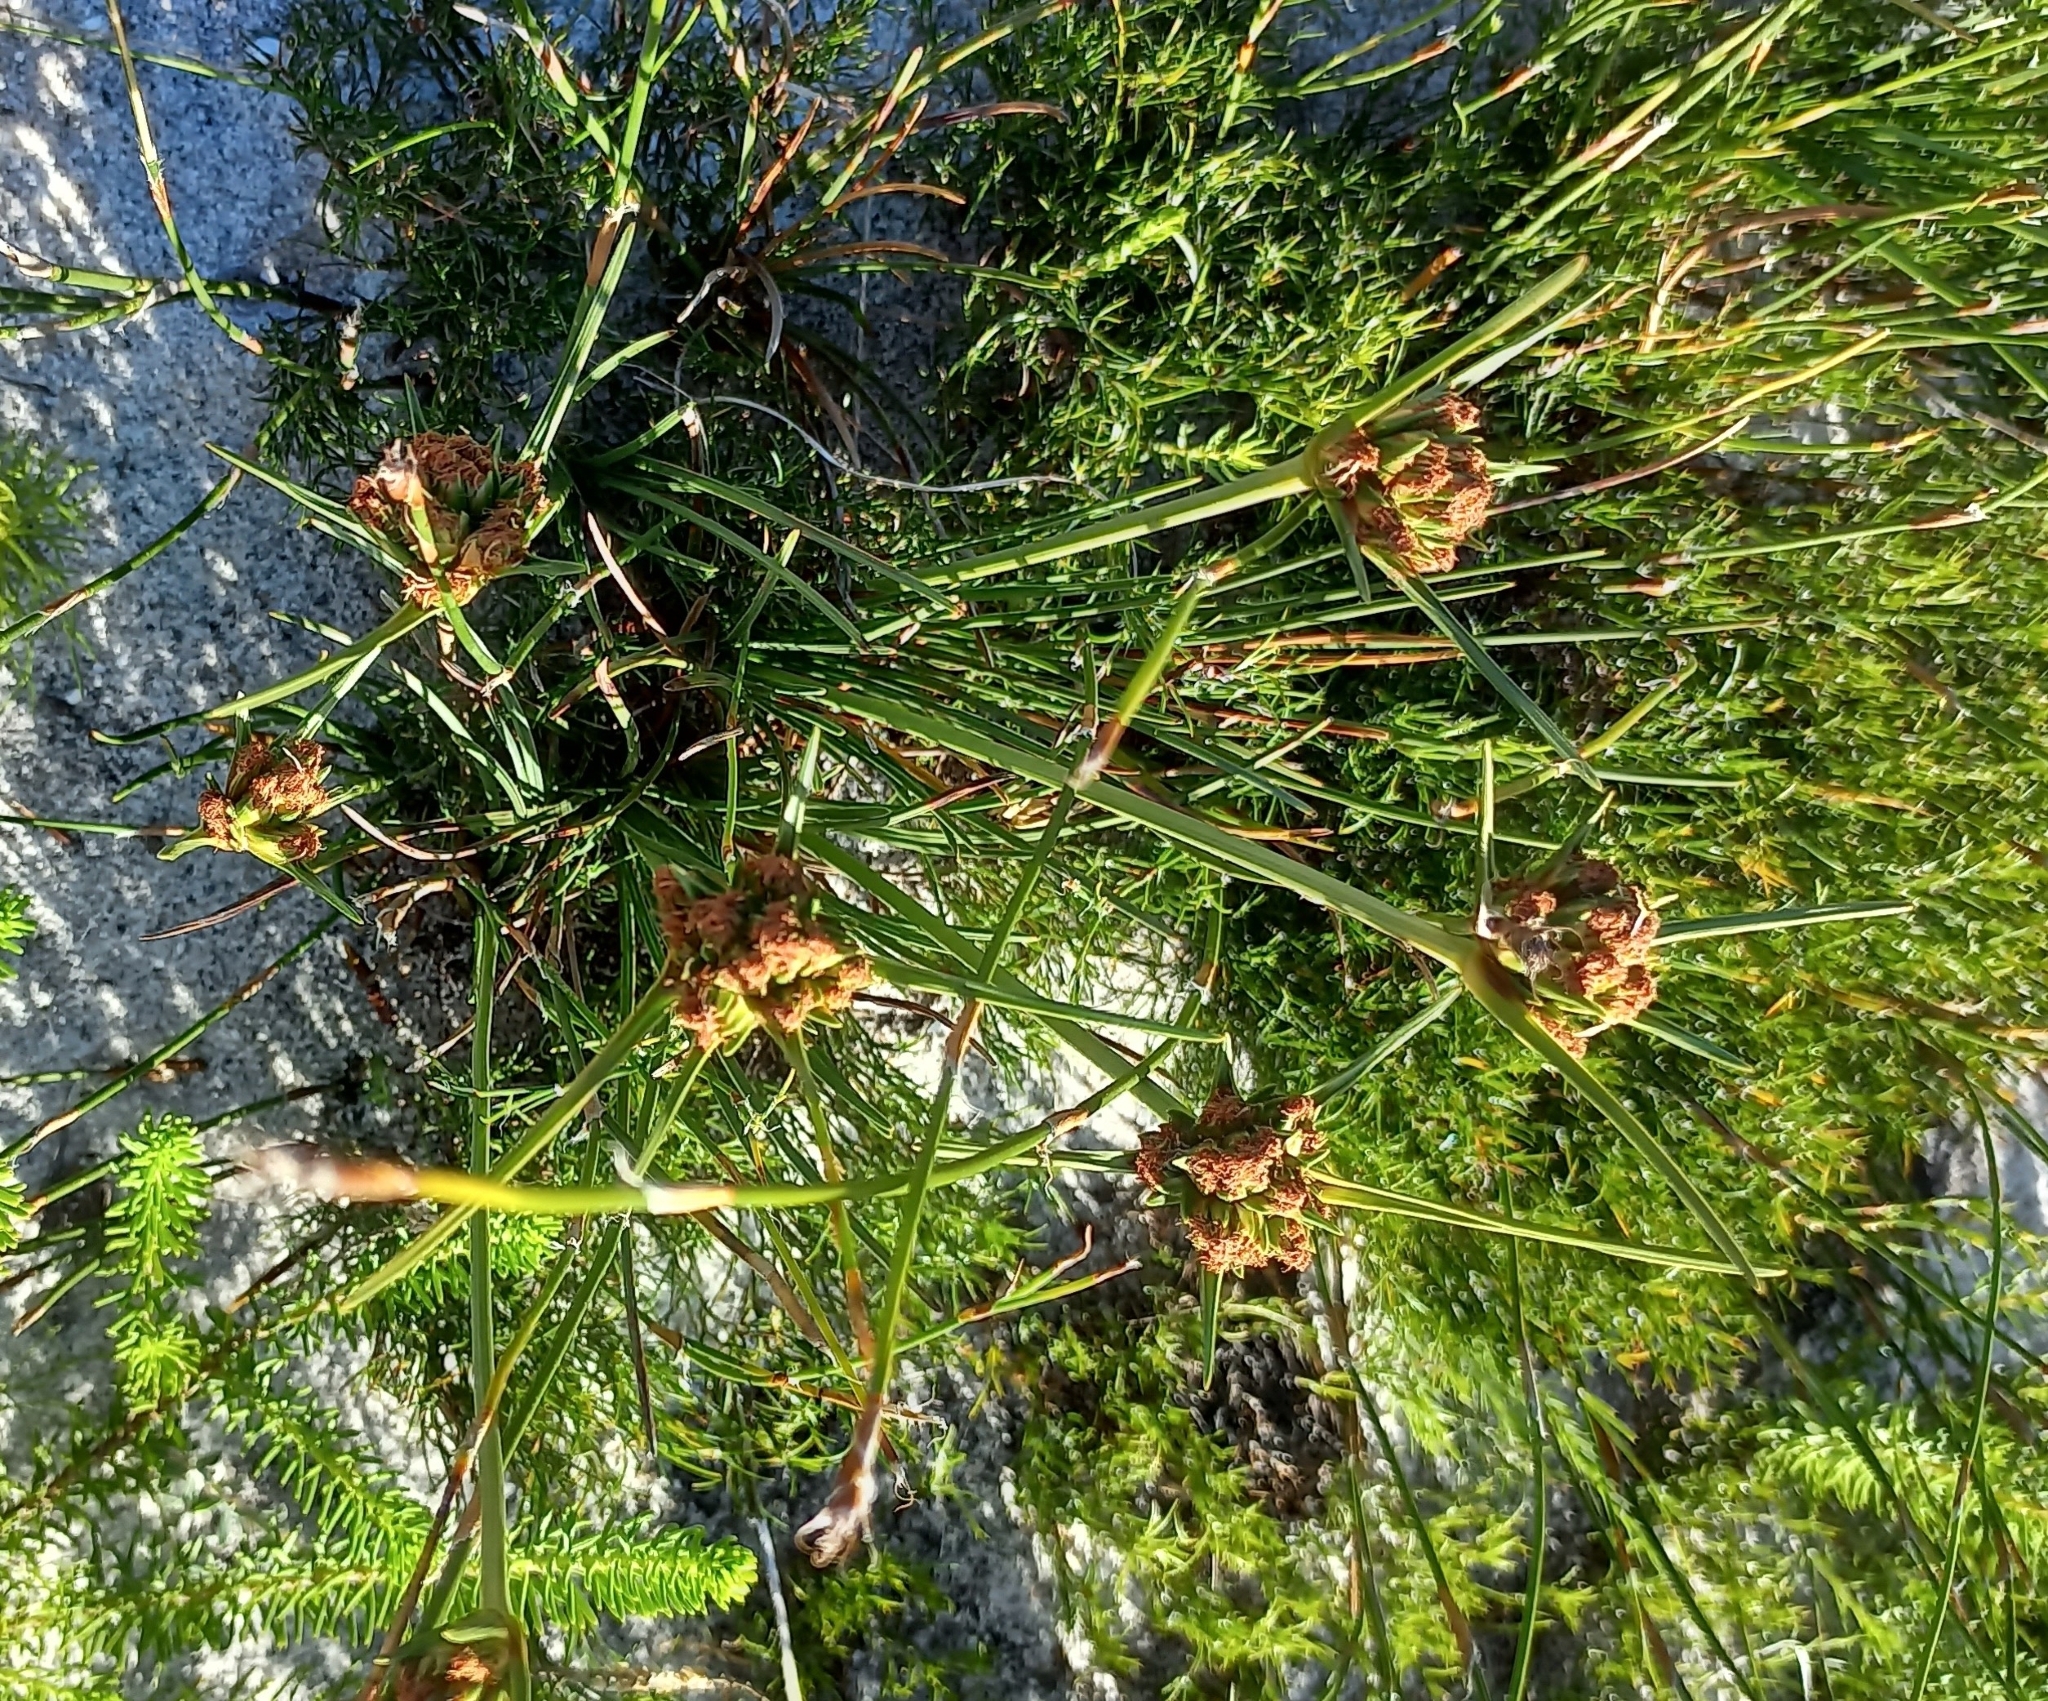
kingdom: Plantae
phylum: Tracheophyta
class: Liliopsida
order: Poales
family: Cyperaceae
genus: Hellmuthia
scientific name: Hellmuthia membranacea
